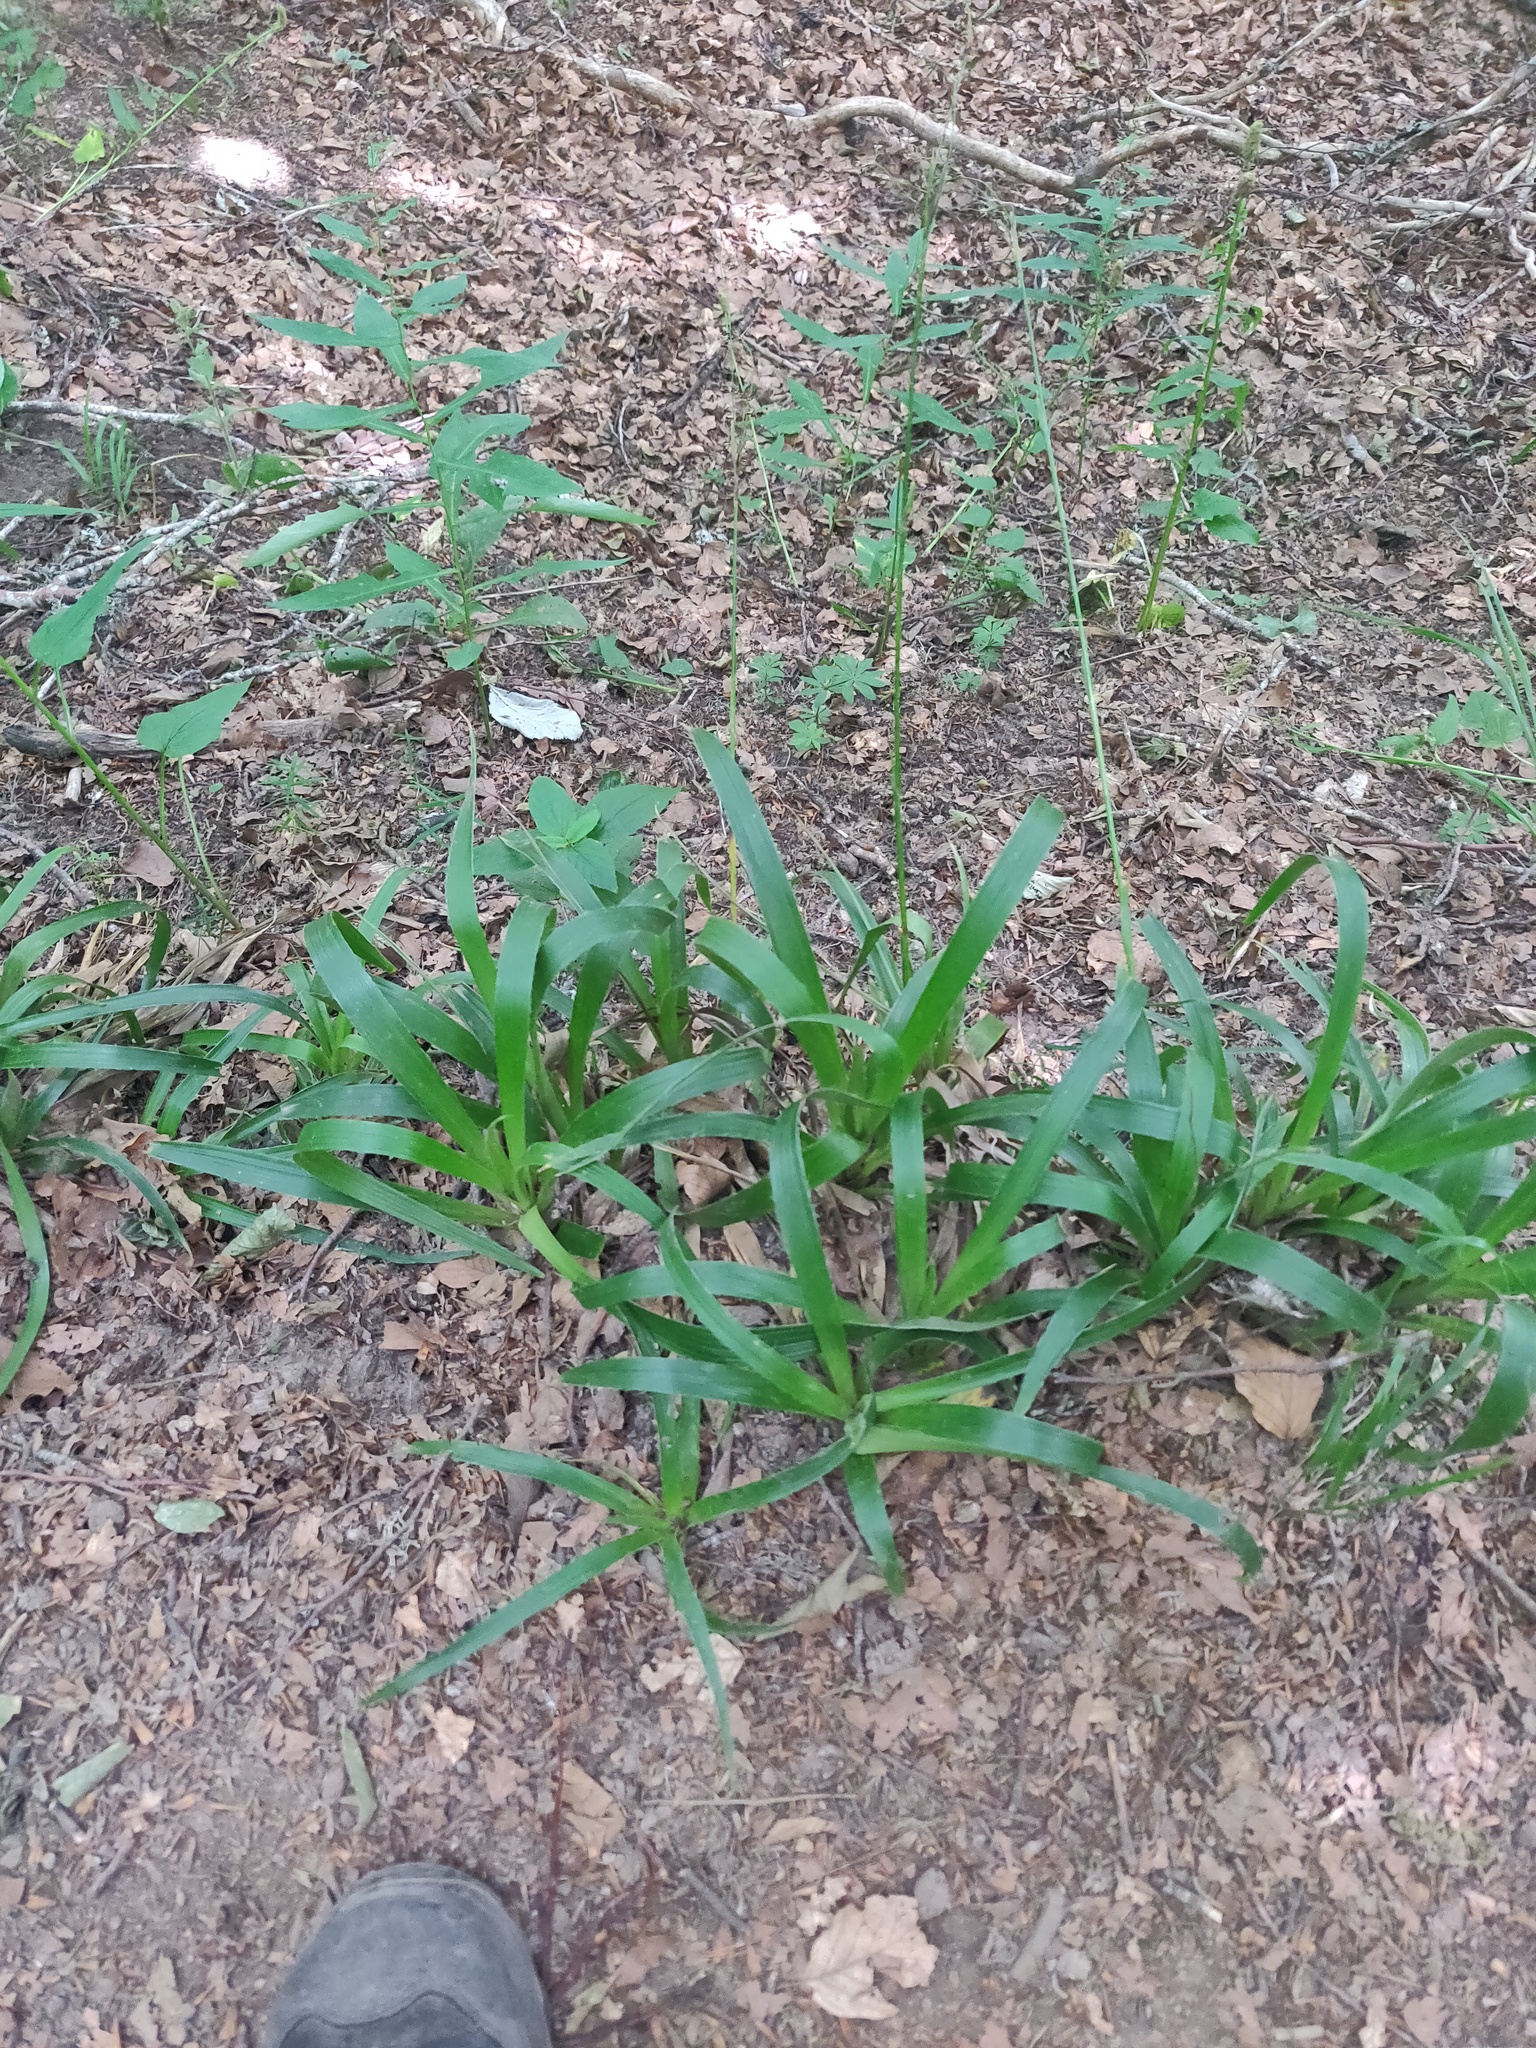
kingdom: Plantae
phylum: Tracheophyta
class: Liliopsida
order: Poales
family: Juncaceae
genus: Luzula
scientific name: Luzula sylvatica
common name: Great wood-rush
